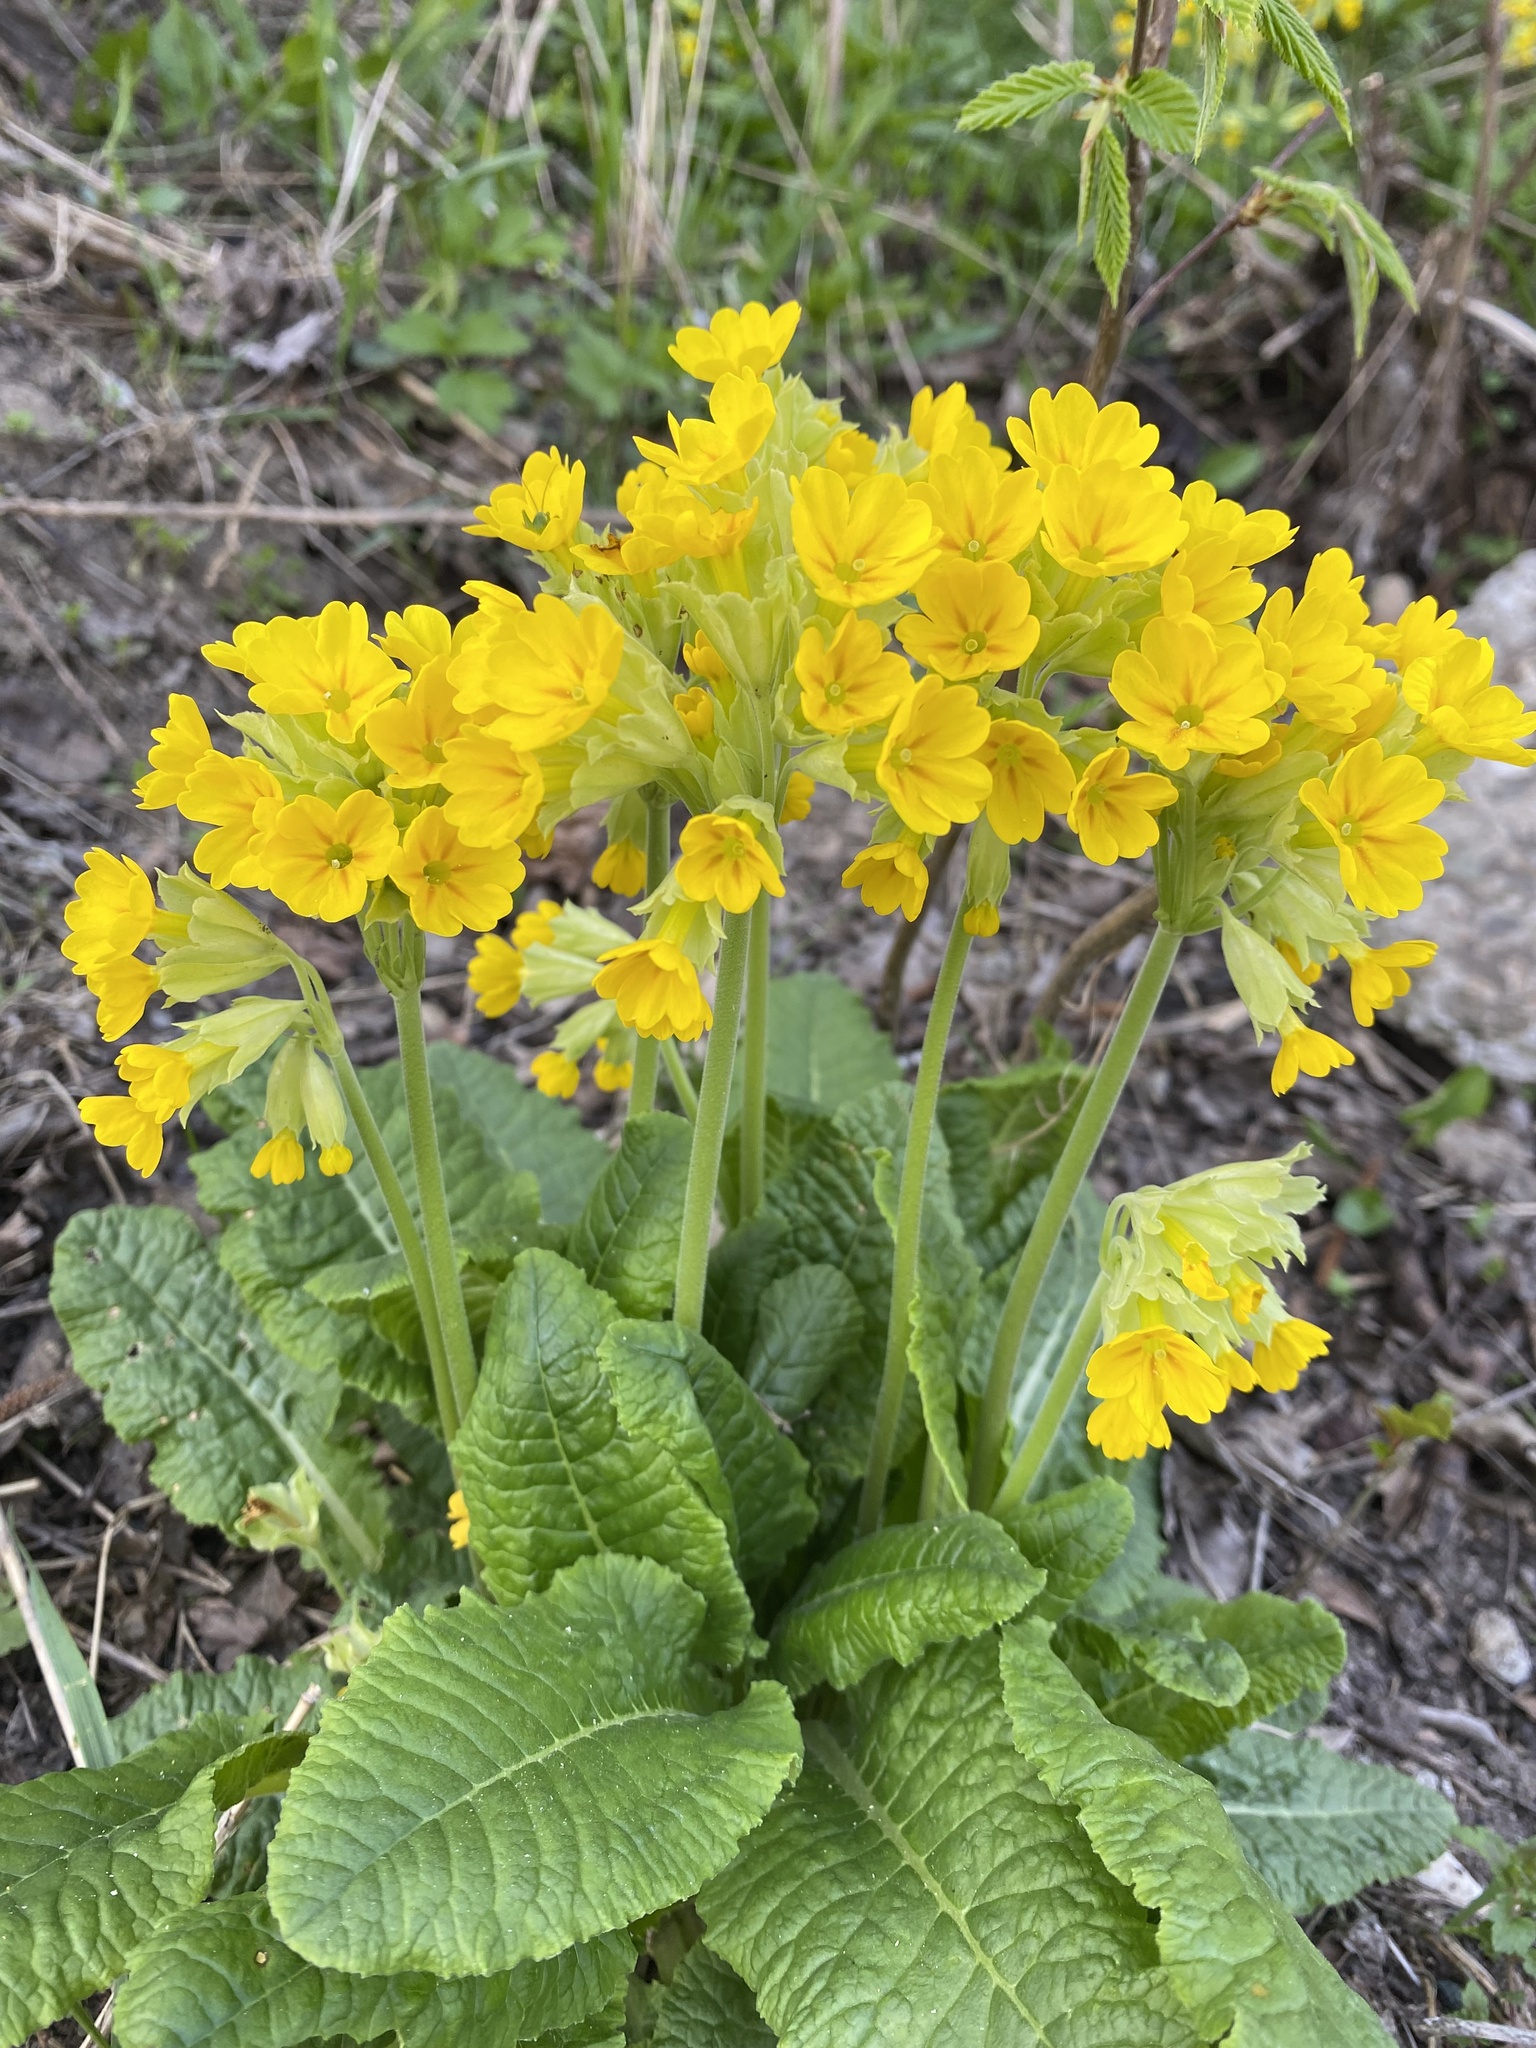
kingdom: Plantae
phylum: Tracheophyta
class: Magnoliopsida
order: Ericales
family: Primulaceae
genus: Primula
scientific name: Primula veris
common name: Cowslip
